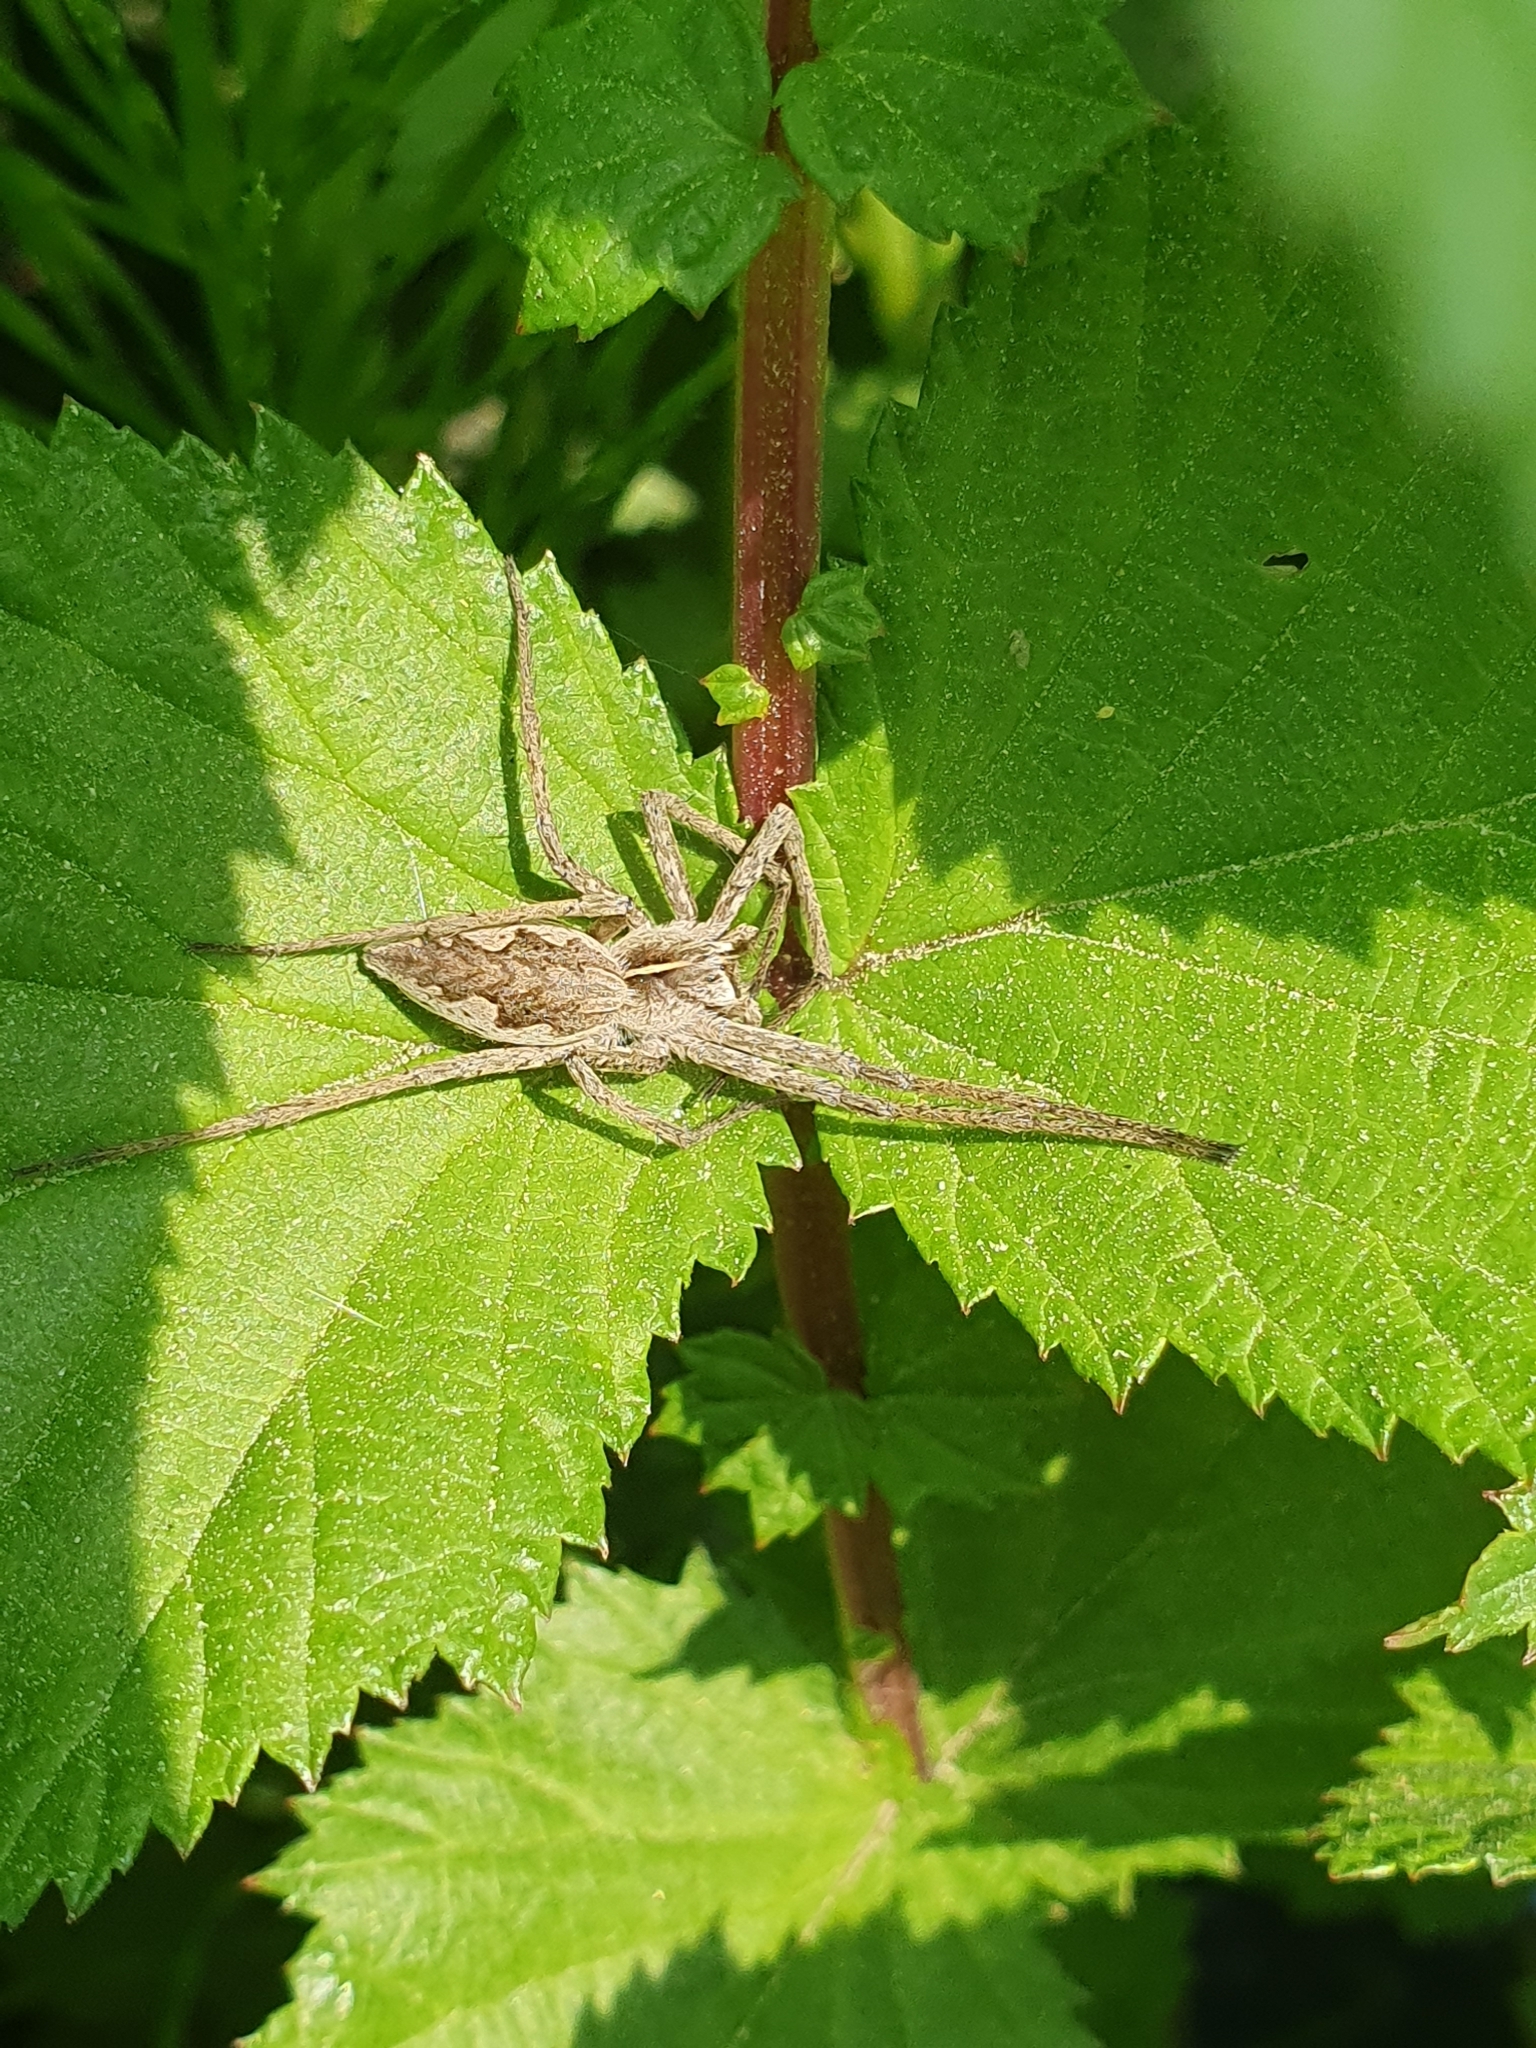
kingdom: Animalia
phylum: Arthropoda
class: Arachnida
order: Araneae
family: Pisauridae
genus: Pisaura
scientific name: Pisaura mirabilis
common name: Tent spider
